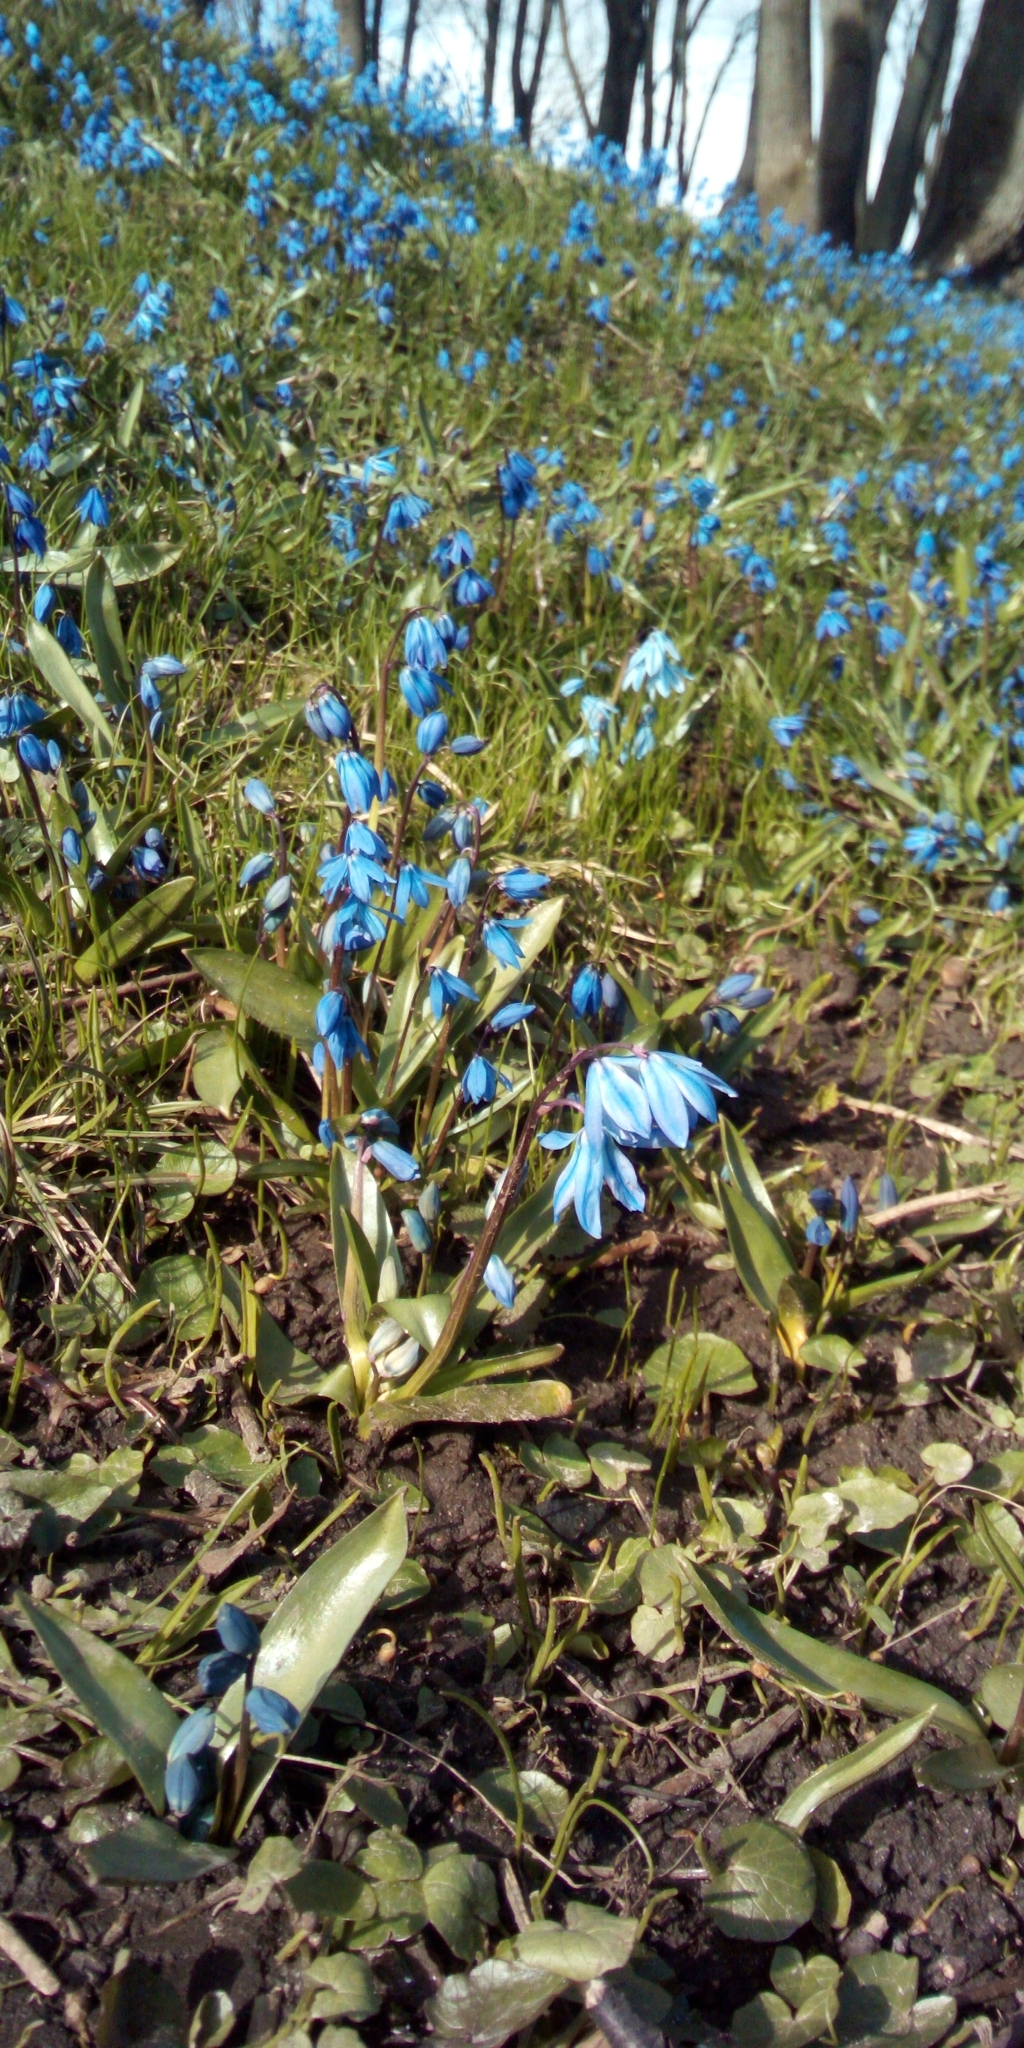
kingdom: Plantae
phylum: Tracheophyta
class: Liliopsida
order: Asparagales
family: Asparagaceae
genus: Scilla
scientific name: Scilla siberica
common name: Siberian squill
